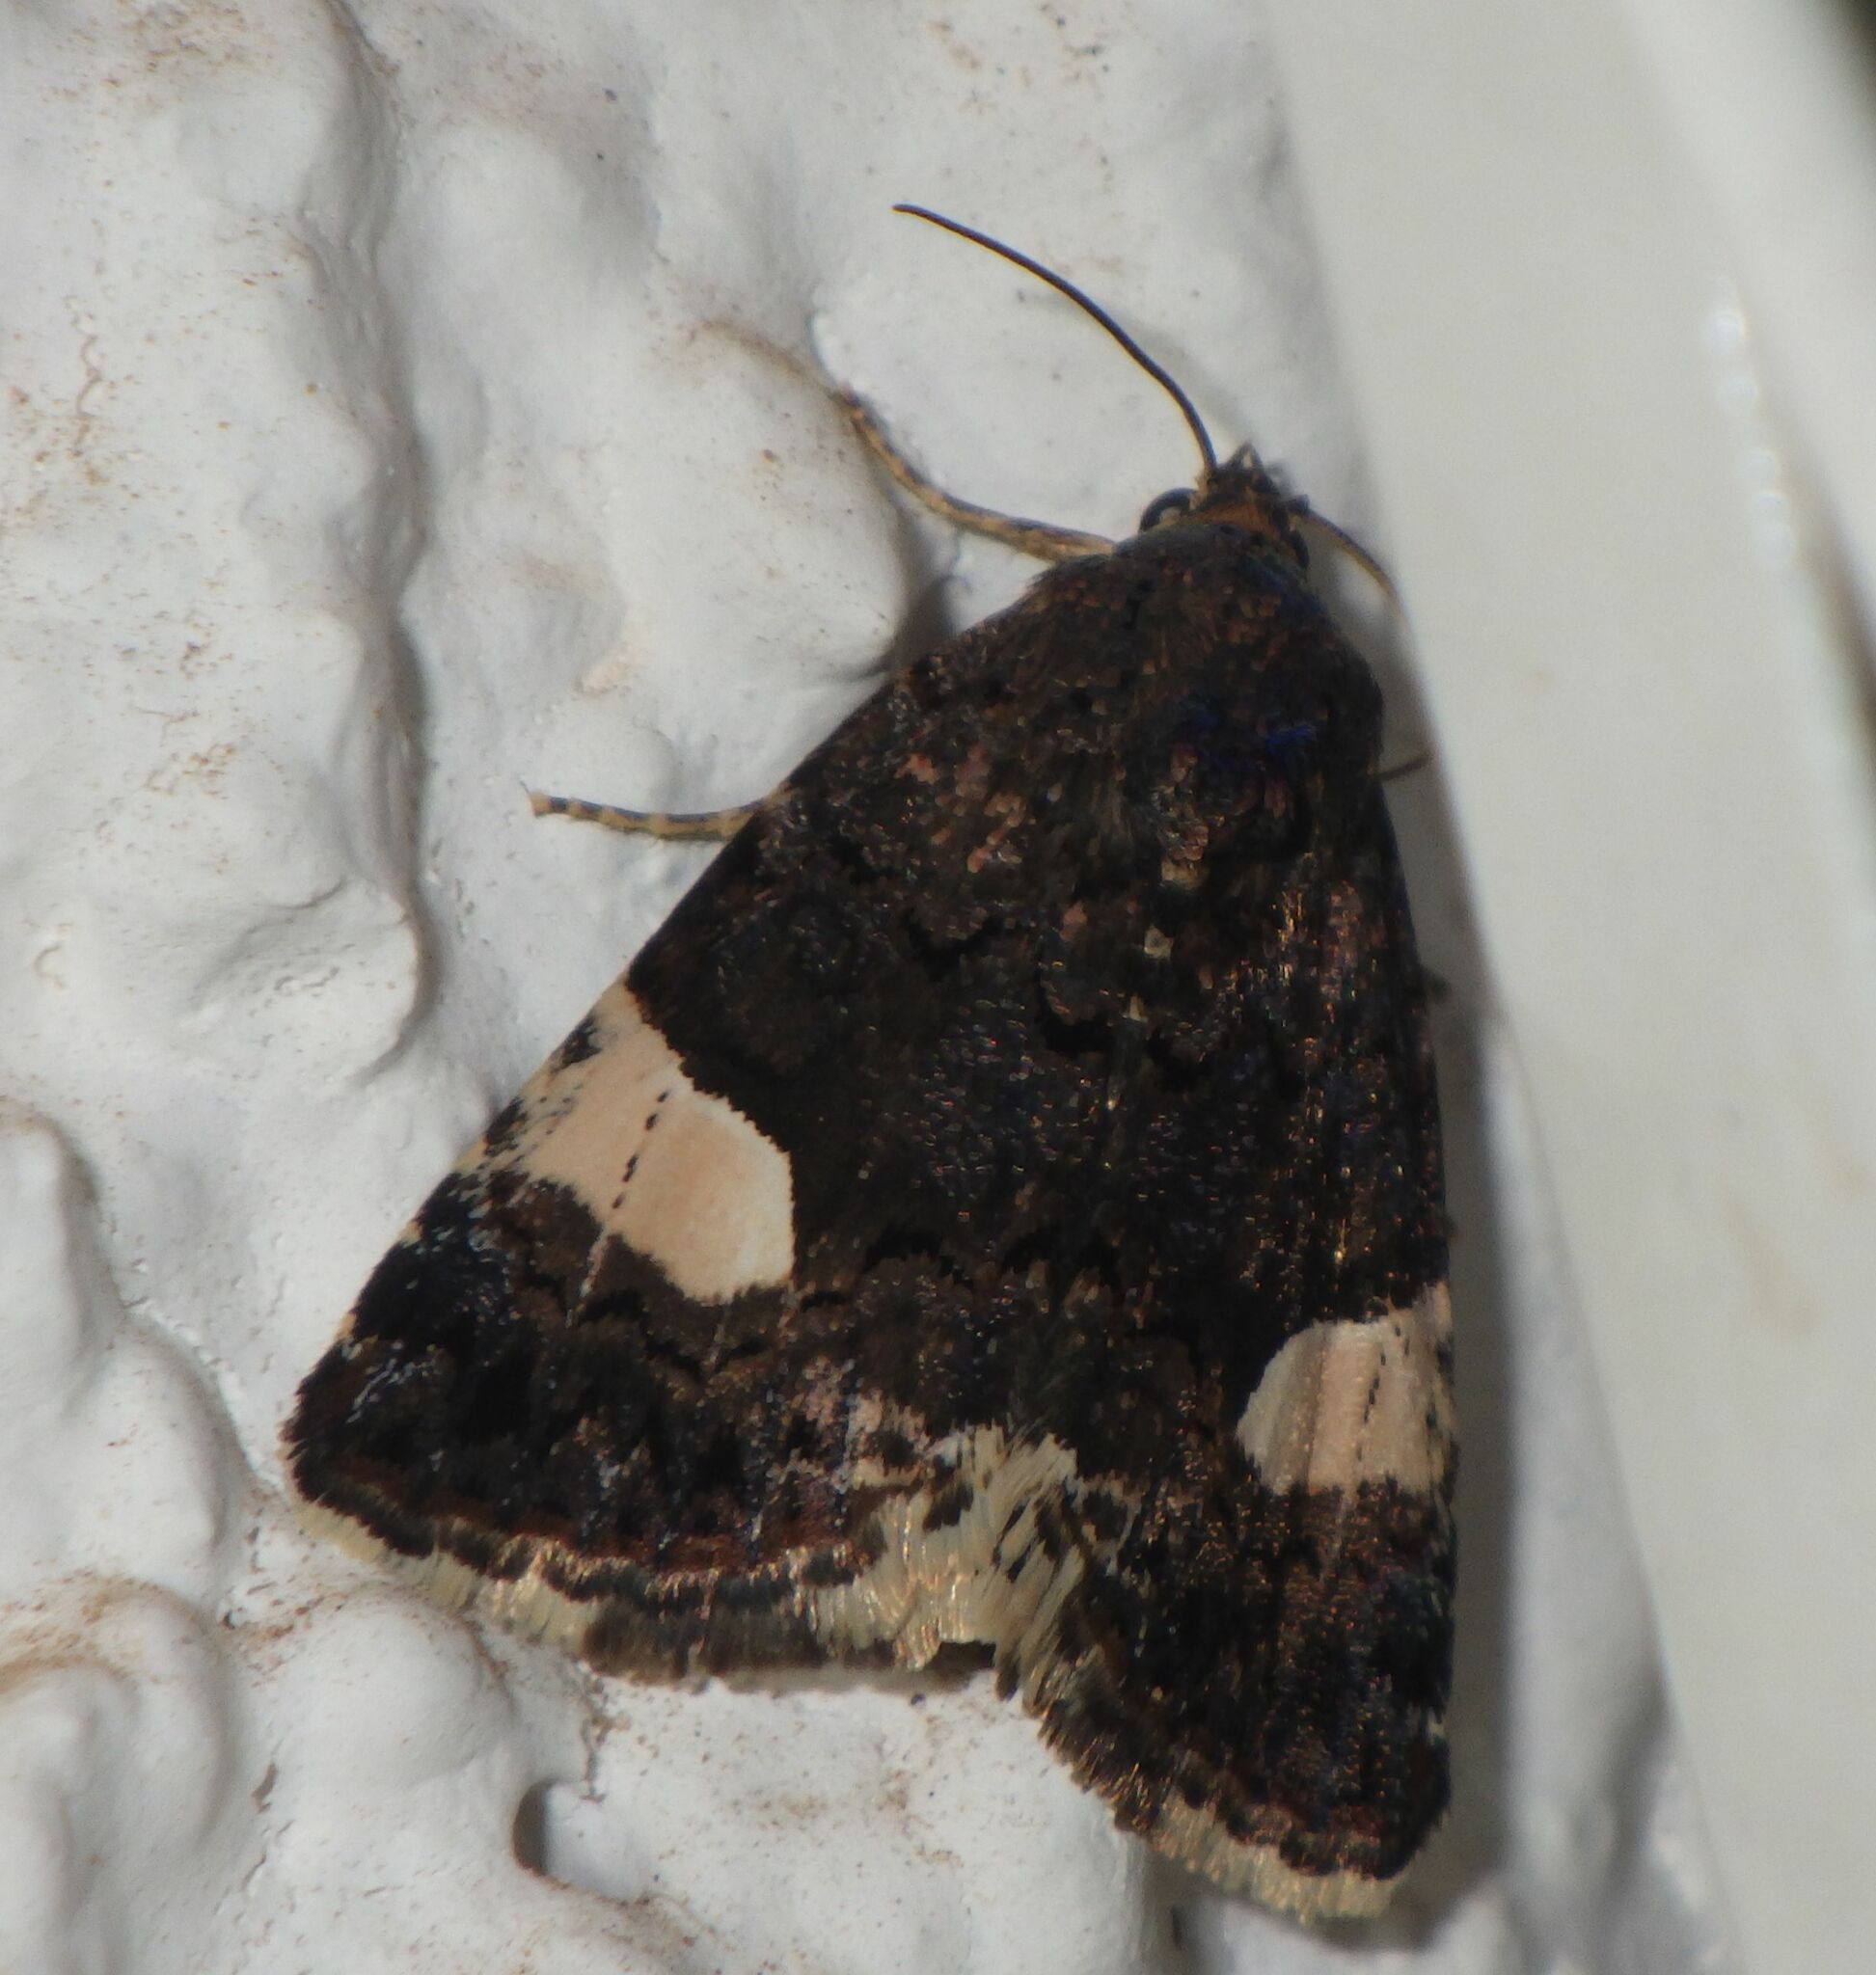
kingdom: Animalia
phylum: Arthropoda
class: Insecta
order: Lepidoptera
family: Erebidae
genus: Tyta
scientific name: Tyta luctuosa
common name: Four-spotted
